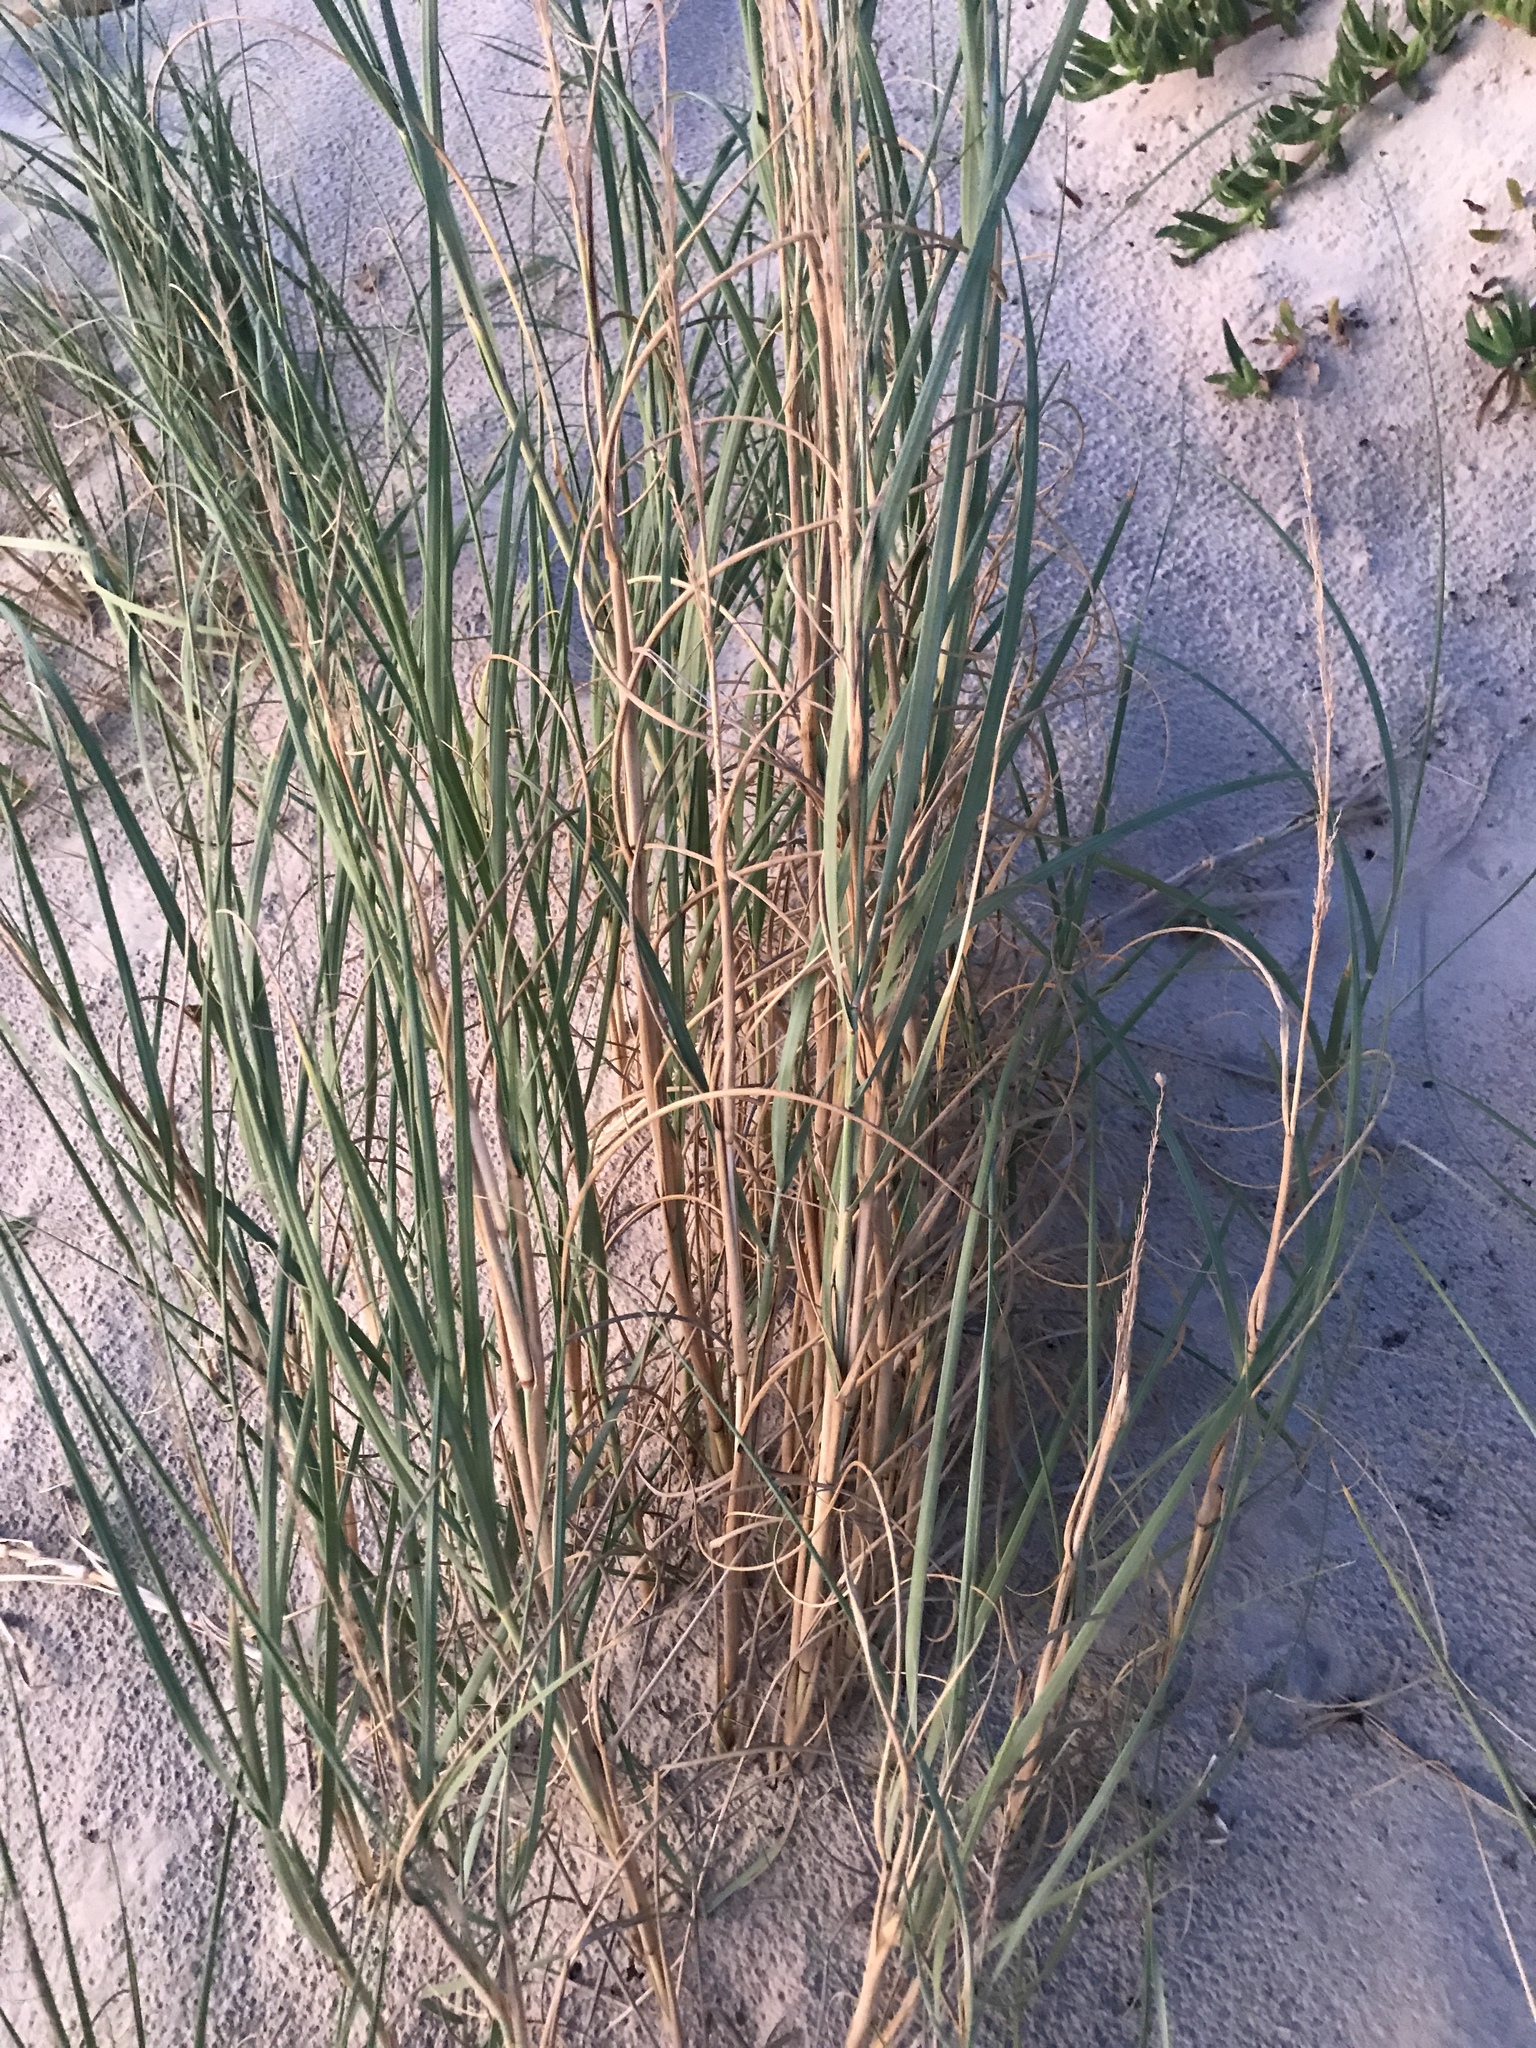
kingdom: Plantae
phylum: Tracheophyta
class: Liliopsida
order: Poales
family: Poaceae
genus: Panicum
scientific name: Panicum racemosum
